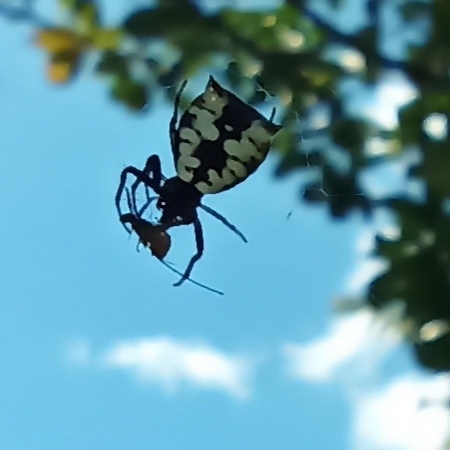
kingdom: Animalia
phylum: Arthropoda
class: Arachnida
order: Araneae
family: Araneidae
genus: Micrathena
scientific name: Micrathena saccata
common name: Orb weavers
